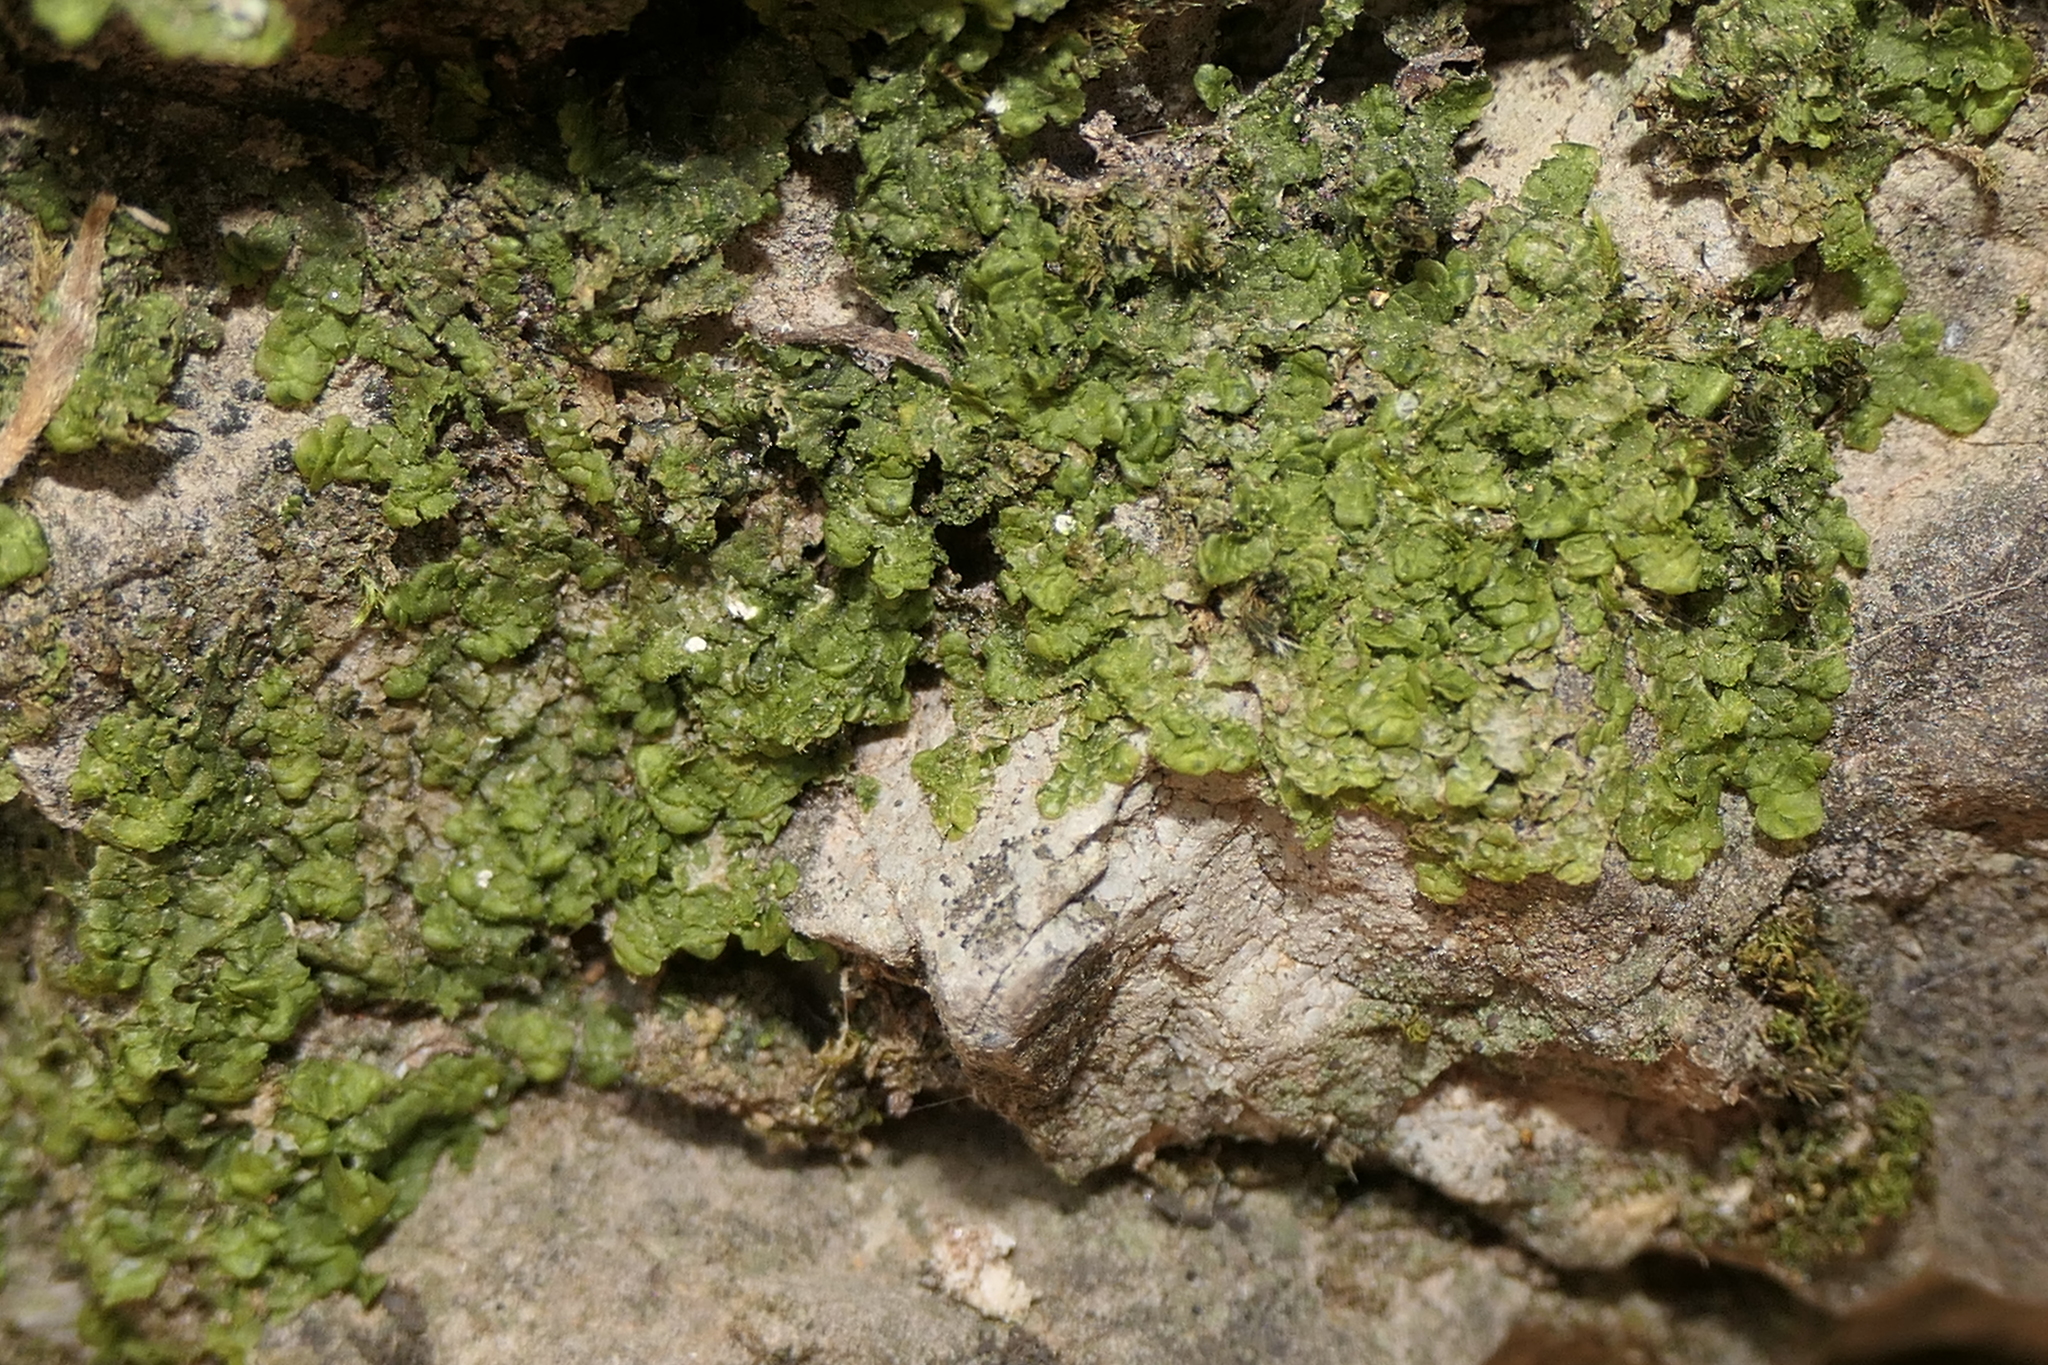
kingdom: Plantae
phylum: Marchantiophyta
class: Jungermanniopsida
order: Porellales
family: Radulaceae
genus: Radula
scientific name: Radula complanata
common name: Flat-leaved scalewort
